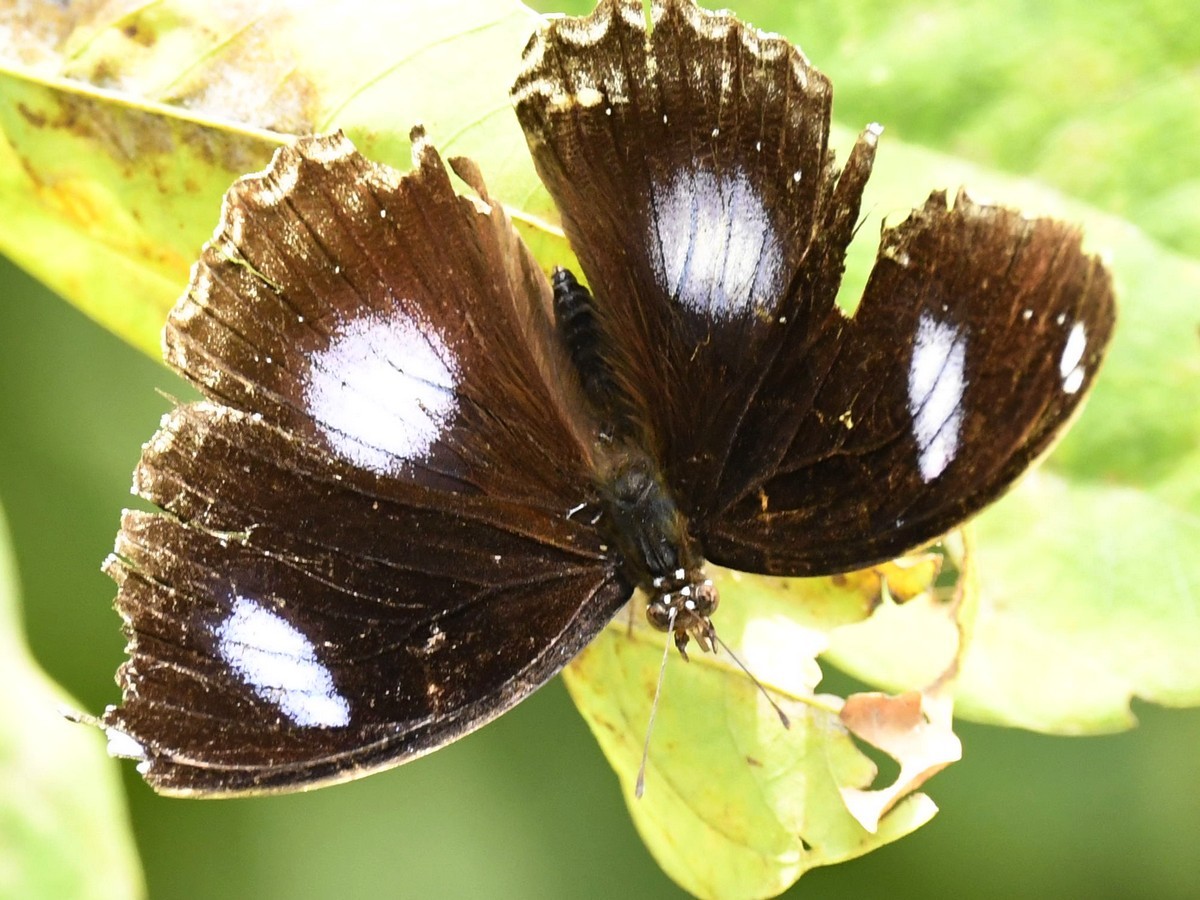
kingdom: Animalia
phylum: Arthropoda
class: Insecta
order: Lepidoptera
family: Nymphalidae
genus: Hypolimnas
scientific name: Hypolimnas bolina
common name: Great eggfly
